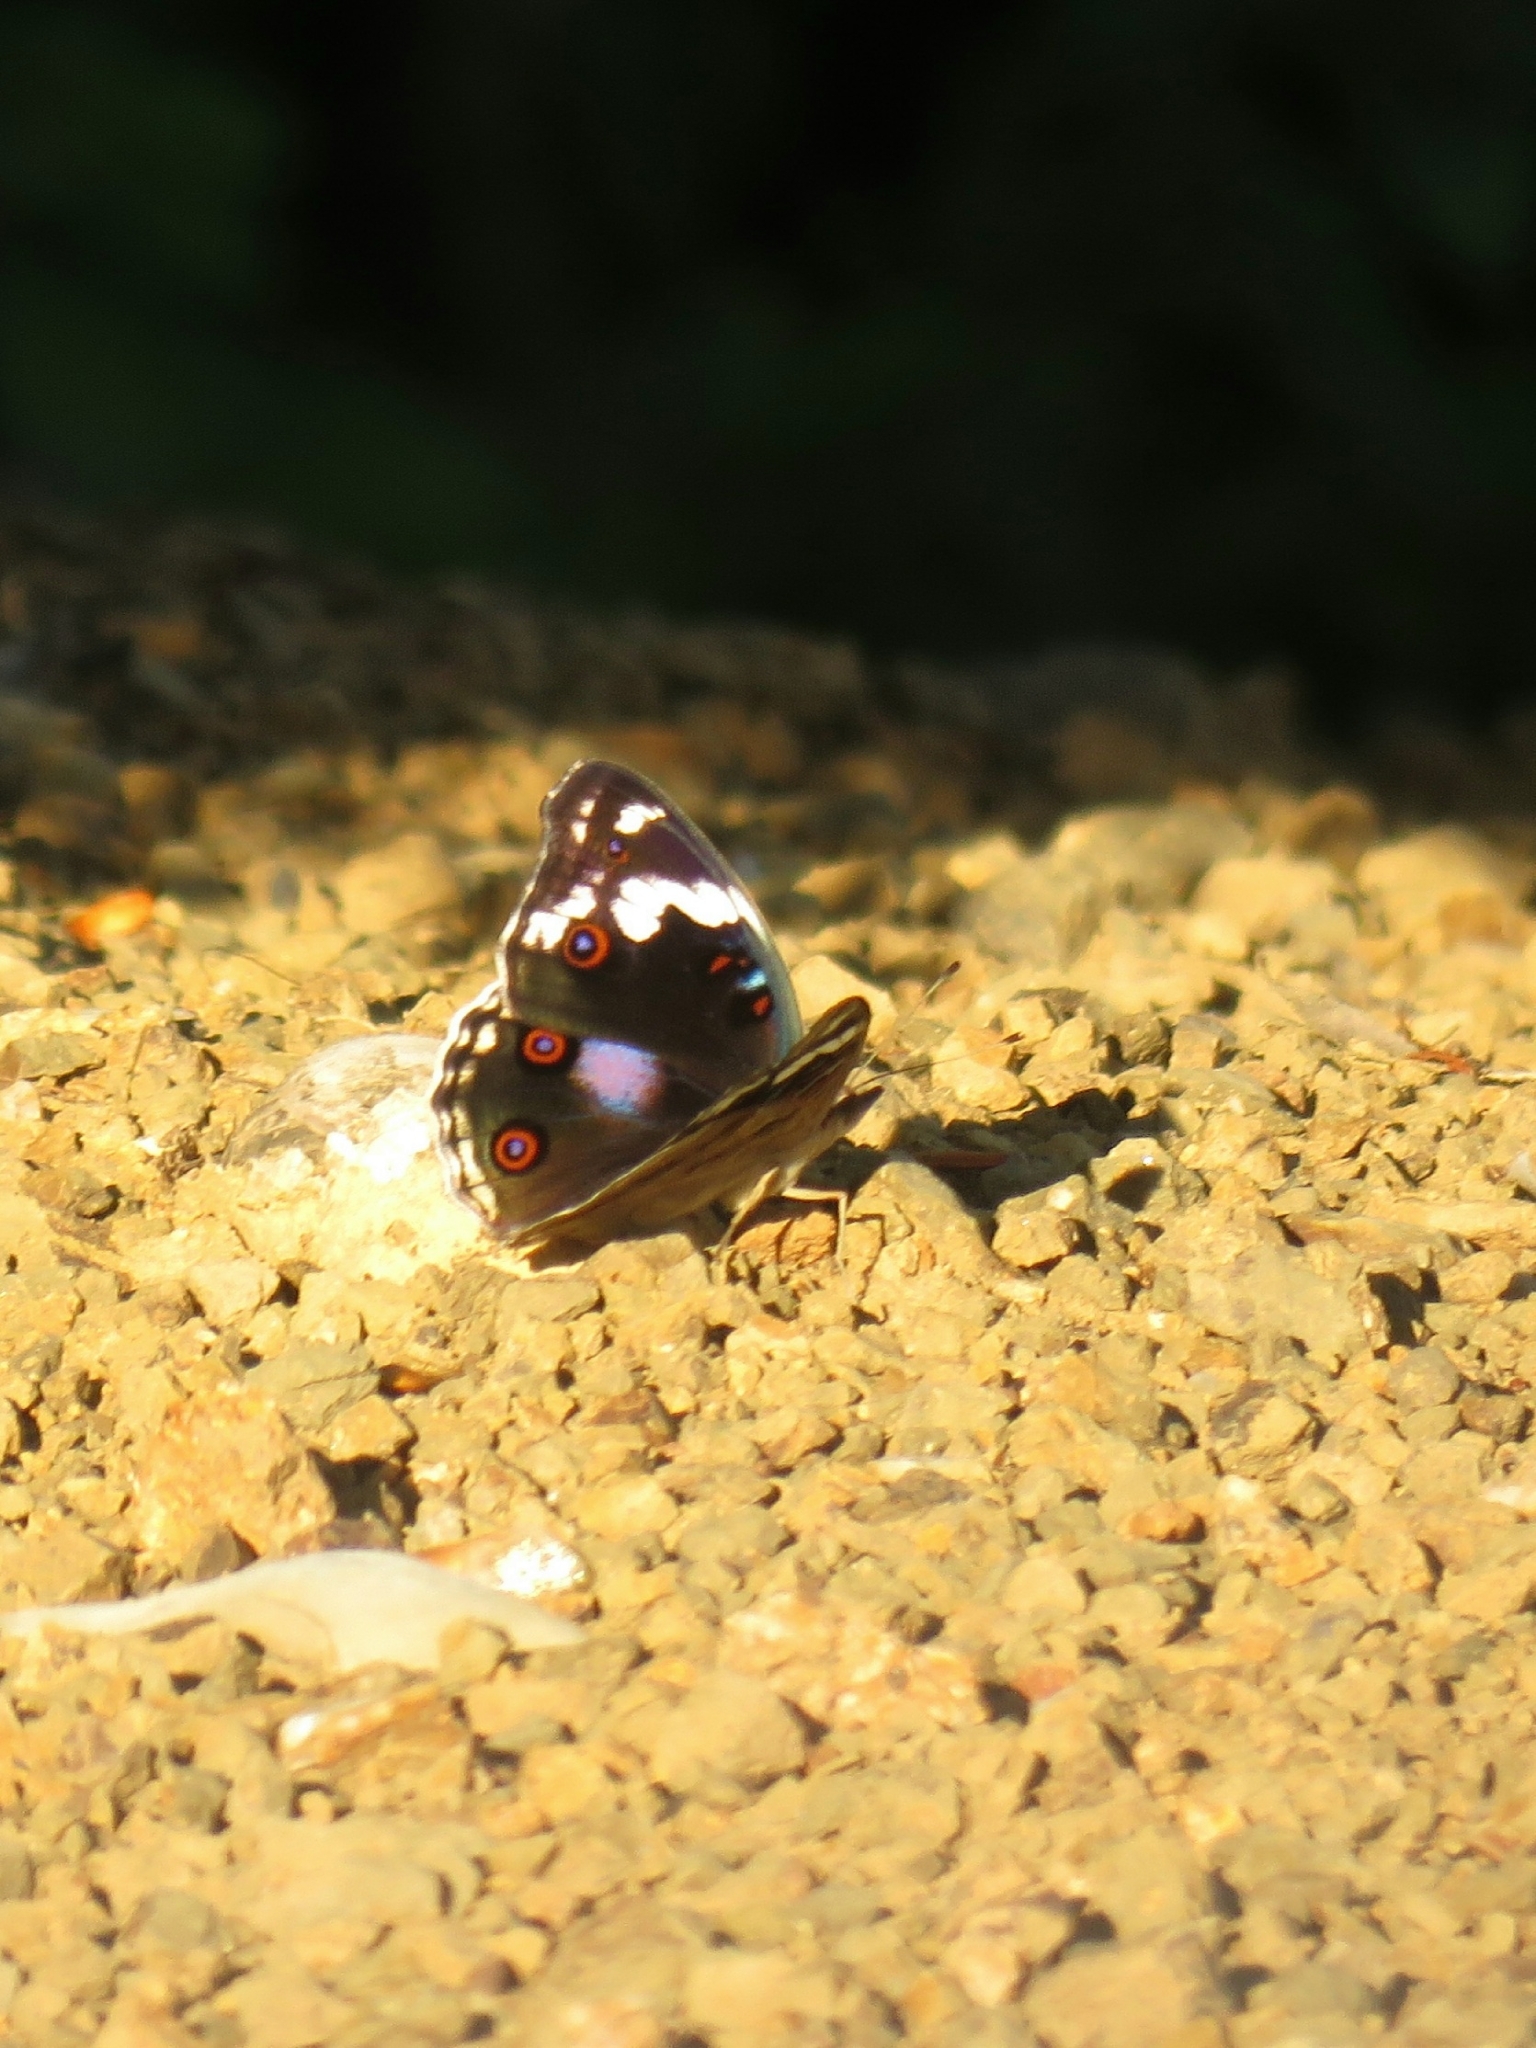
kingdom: Animalia
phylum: Arthropoda
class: Insecta
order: Lepidoptera
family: Nymphalidae
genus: Junonia
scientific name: Junonia oenone
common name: Dark blue pansy
